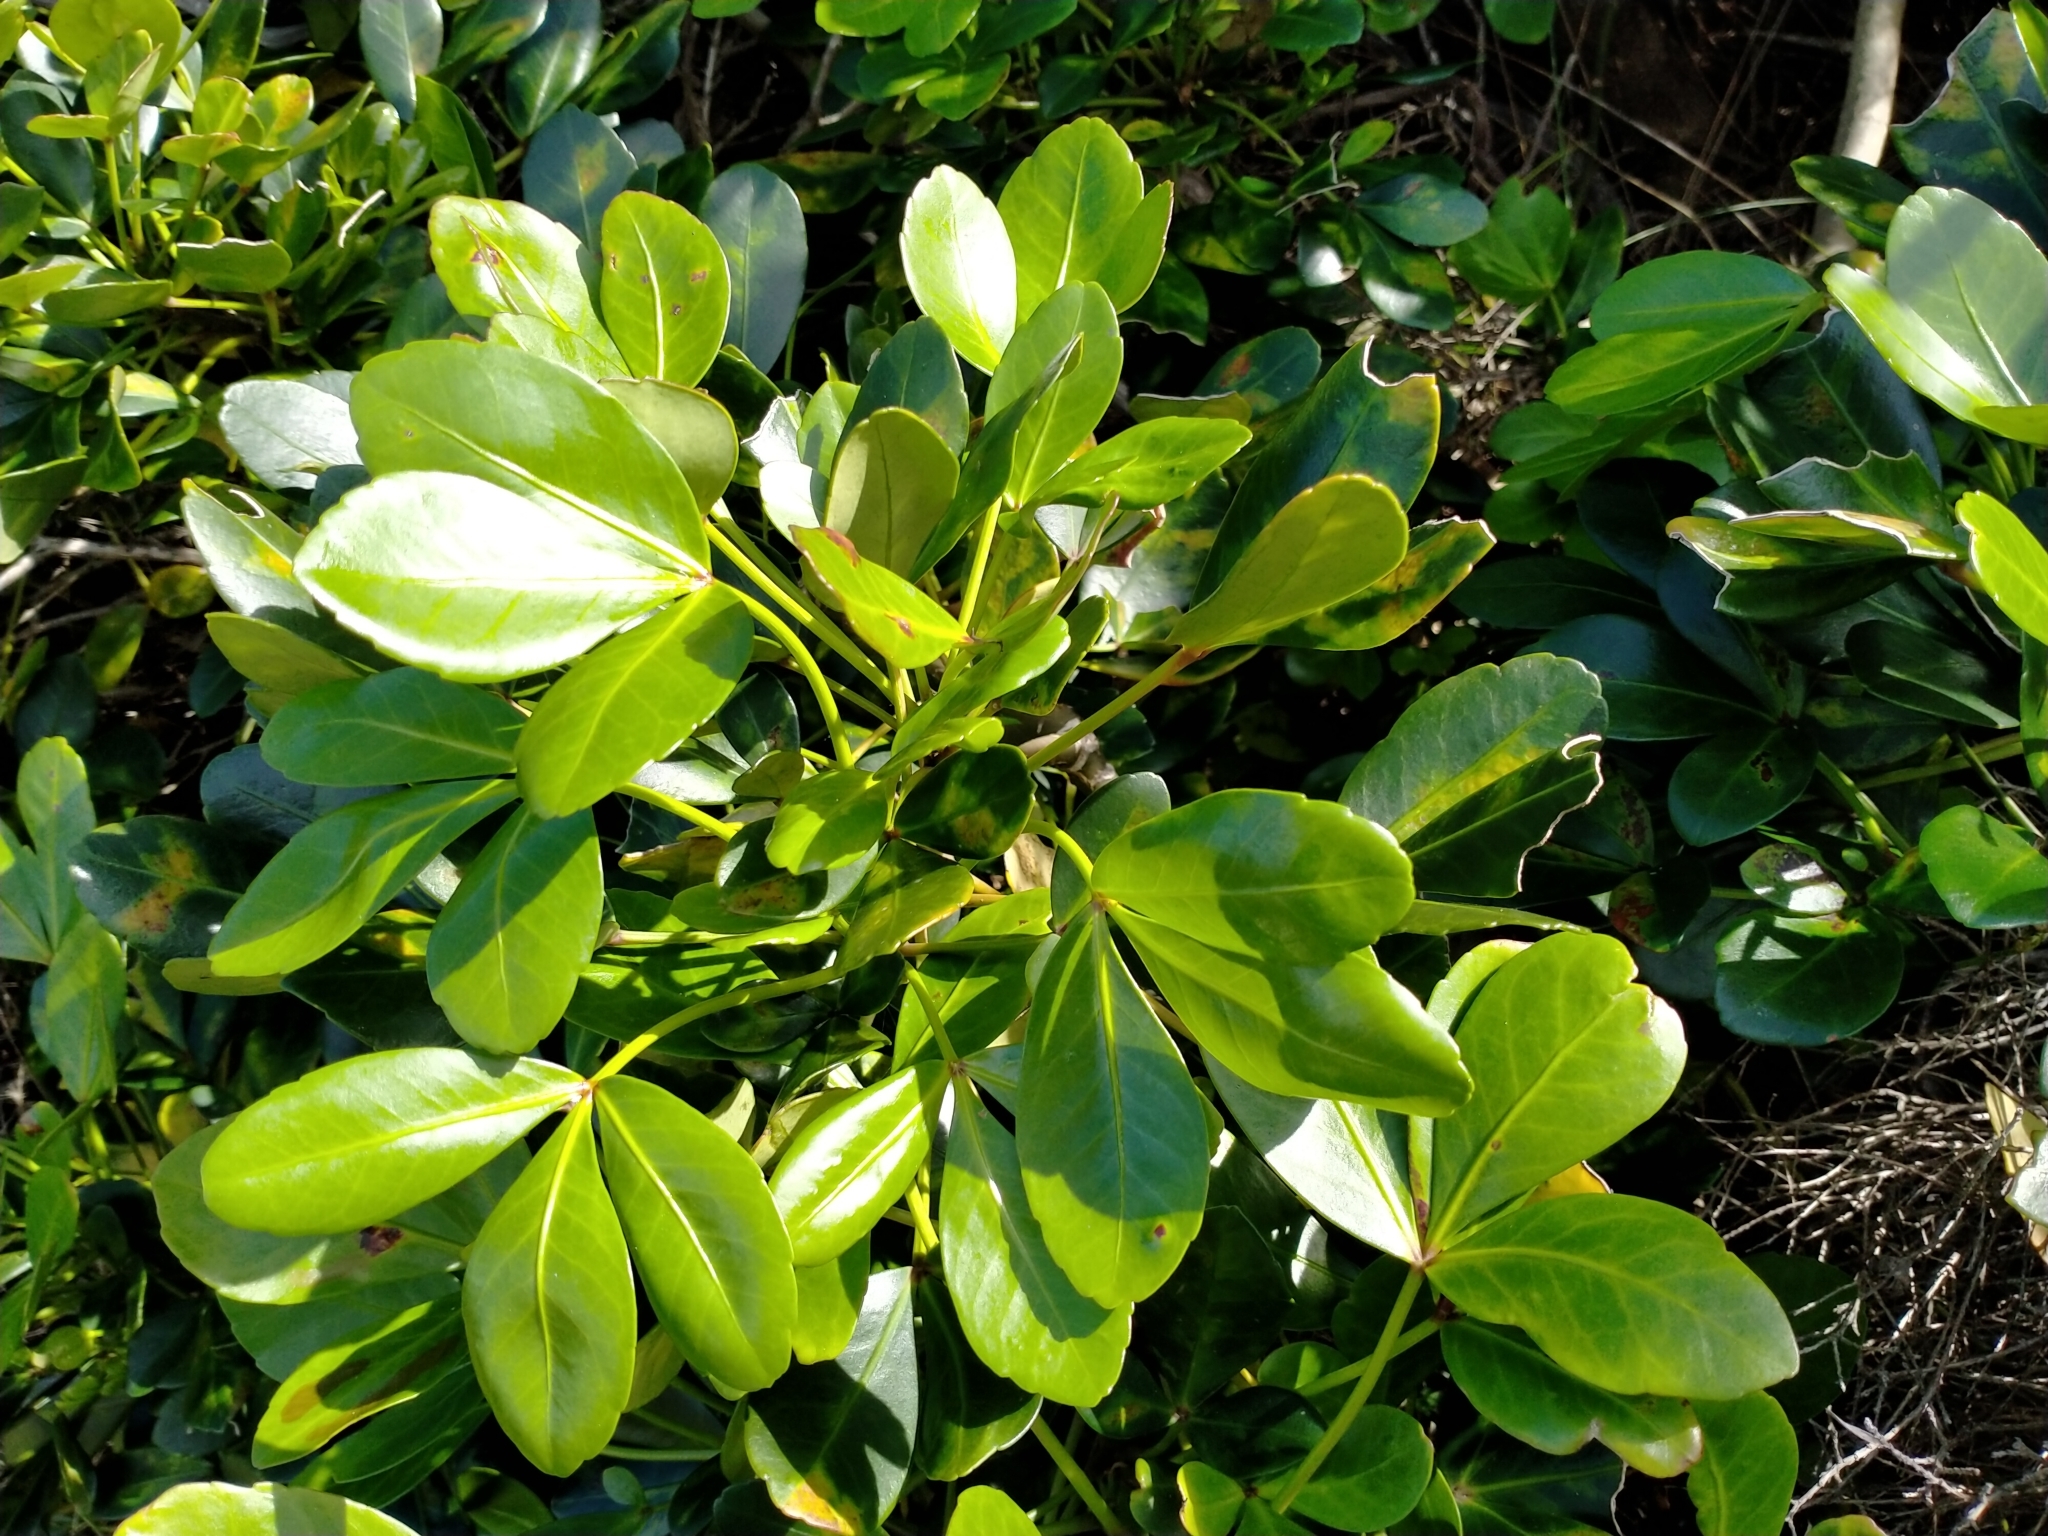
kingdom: Plantae
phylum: Tracheophyta
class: Magnoliopsida
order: Apiales
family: Araliaceae
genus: Pseudopanax
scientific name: Pseudopanax lessonii
